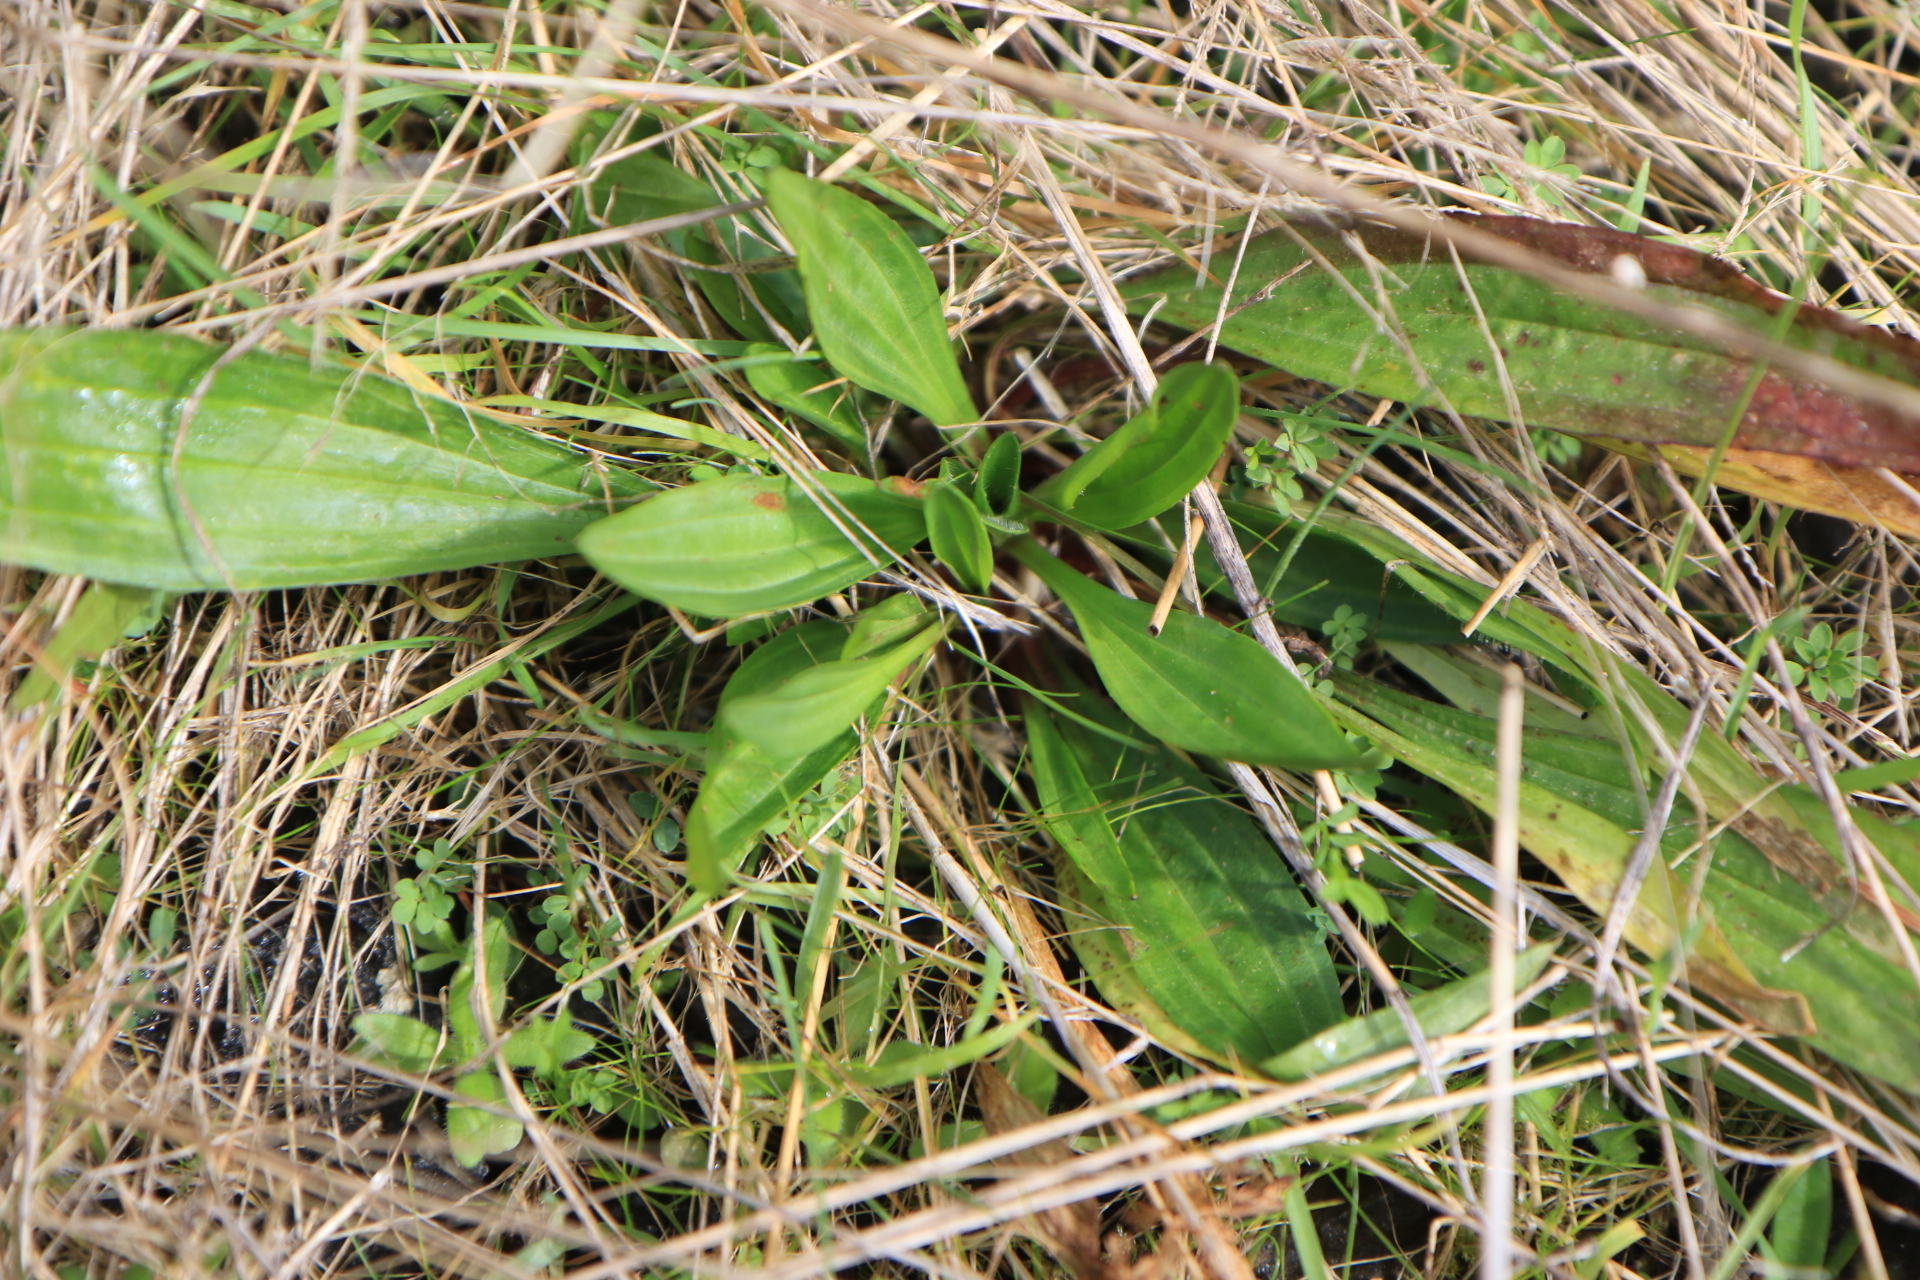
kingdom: Plantae
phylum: Tracheophyta
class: Magnoliopsida
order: Lamiales
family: Plantaginaceae
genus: Plantago
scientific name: Plantago lanceolata
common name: Ribwort plantain
